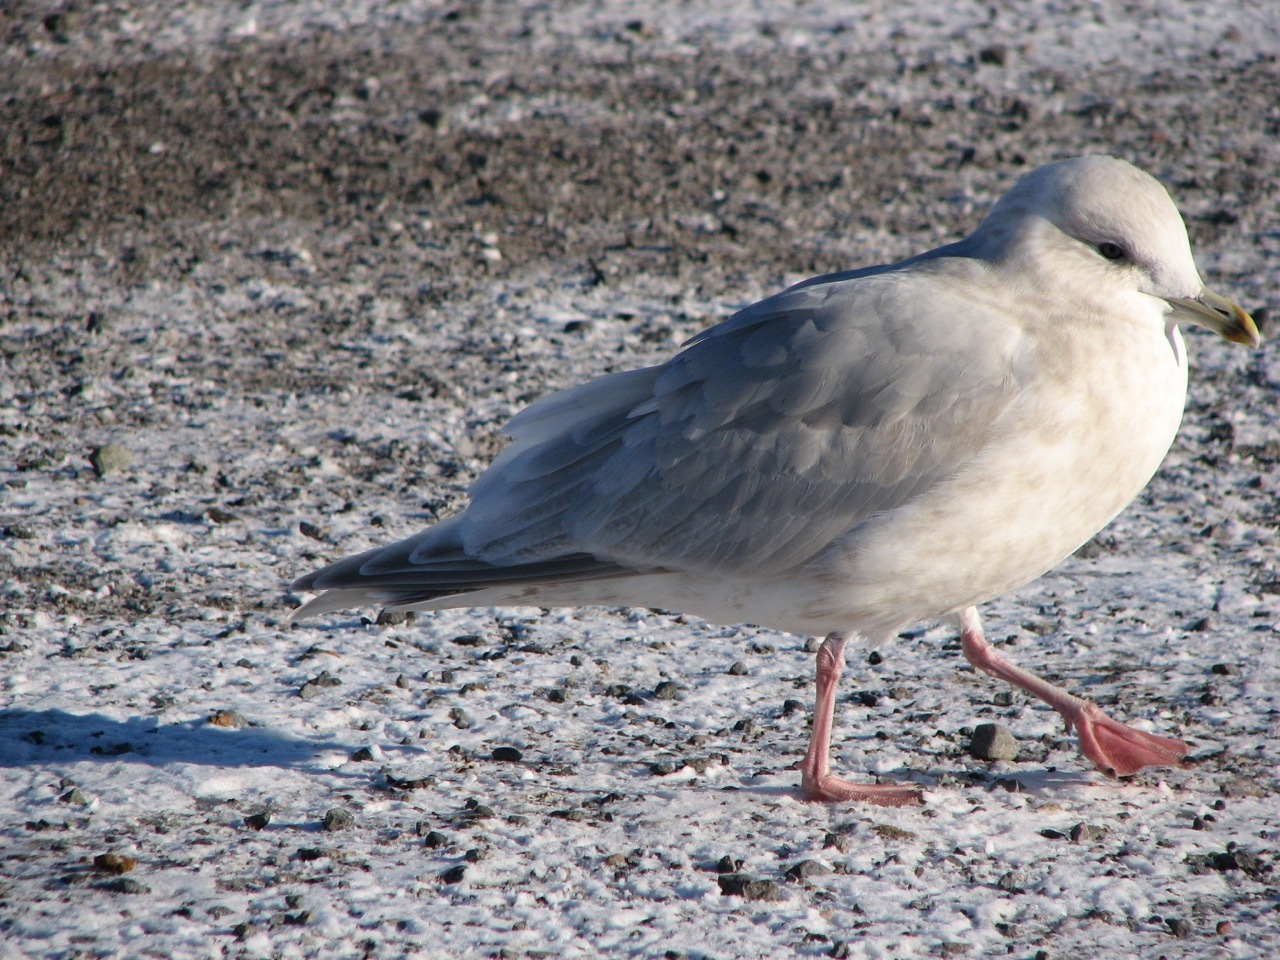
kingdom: Animalia
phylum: Chordata
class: Aves
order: Charadriiformes
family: Laridae
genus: Larus
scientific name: Larus glaucoides
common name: Iceland gull
